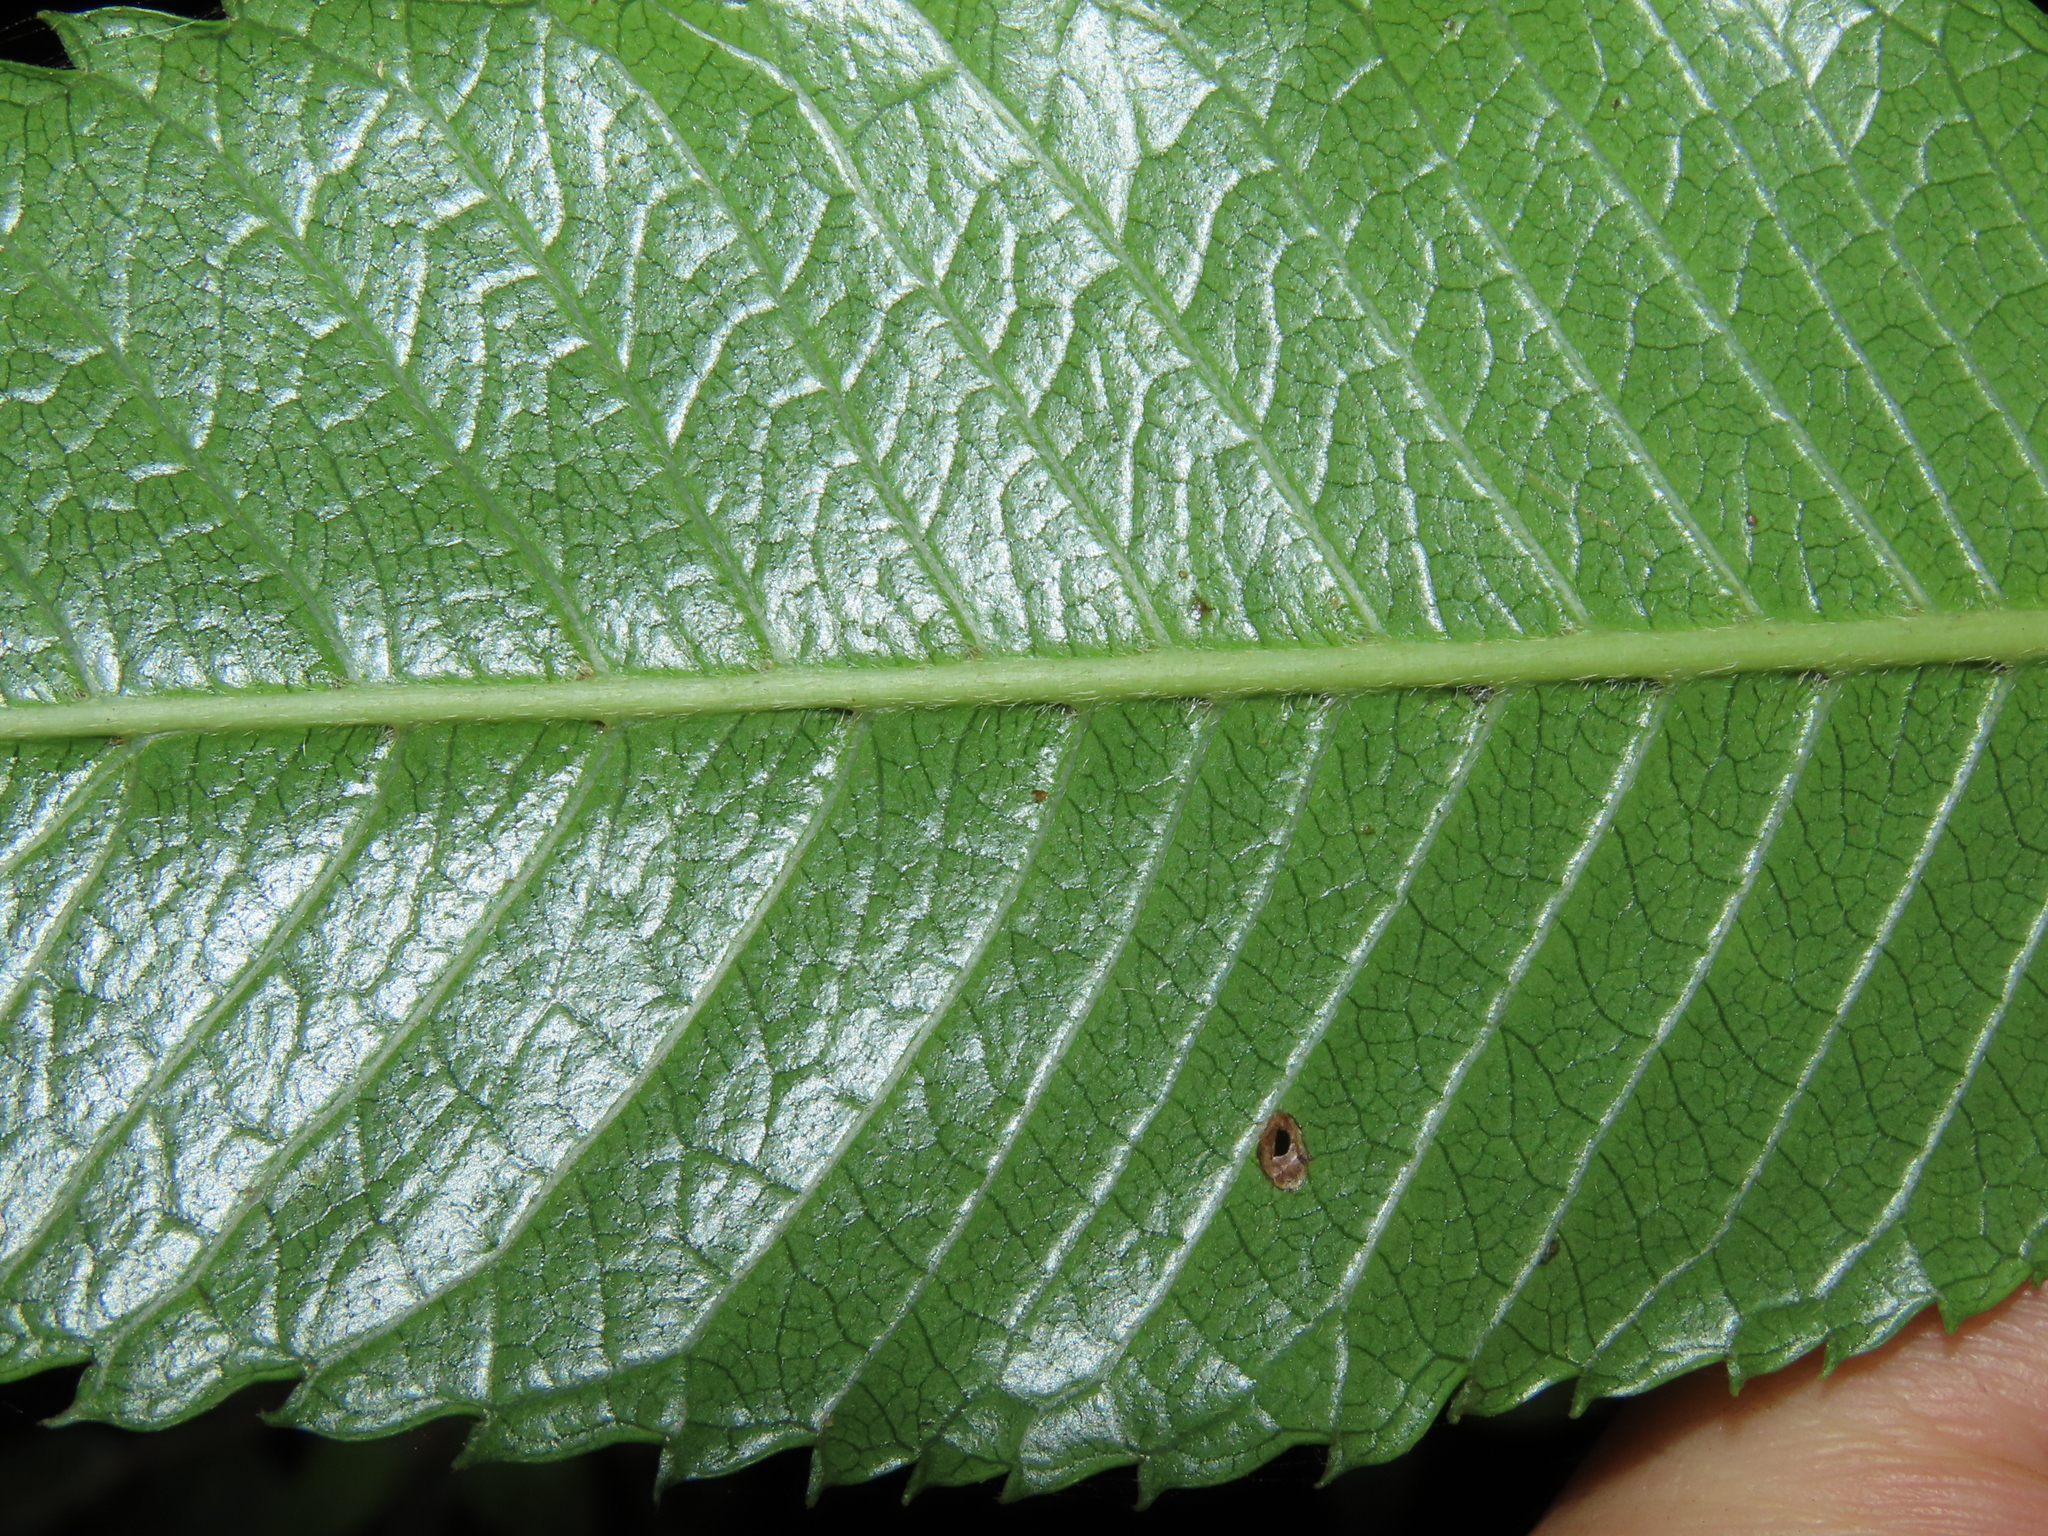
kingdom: Plantae
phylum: Tracheophyta
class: Magnoliopsida
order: Oxalidales
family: Cunoniaceae
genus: Caldcluvia
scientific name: Caldcluvia paniculata
